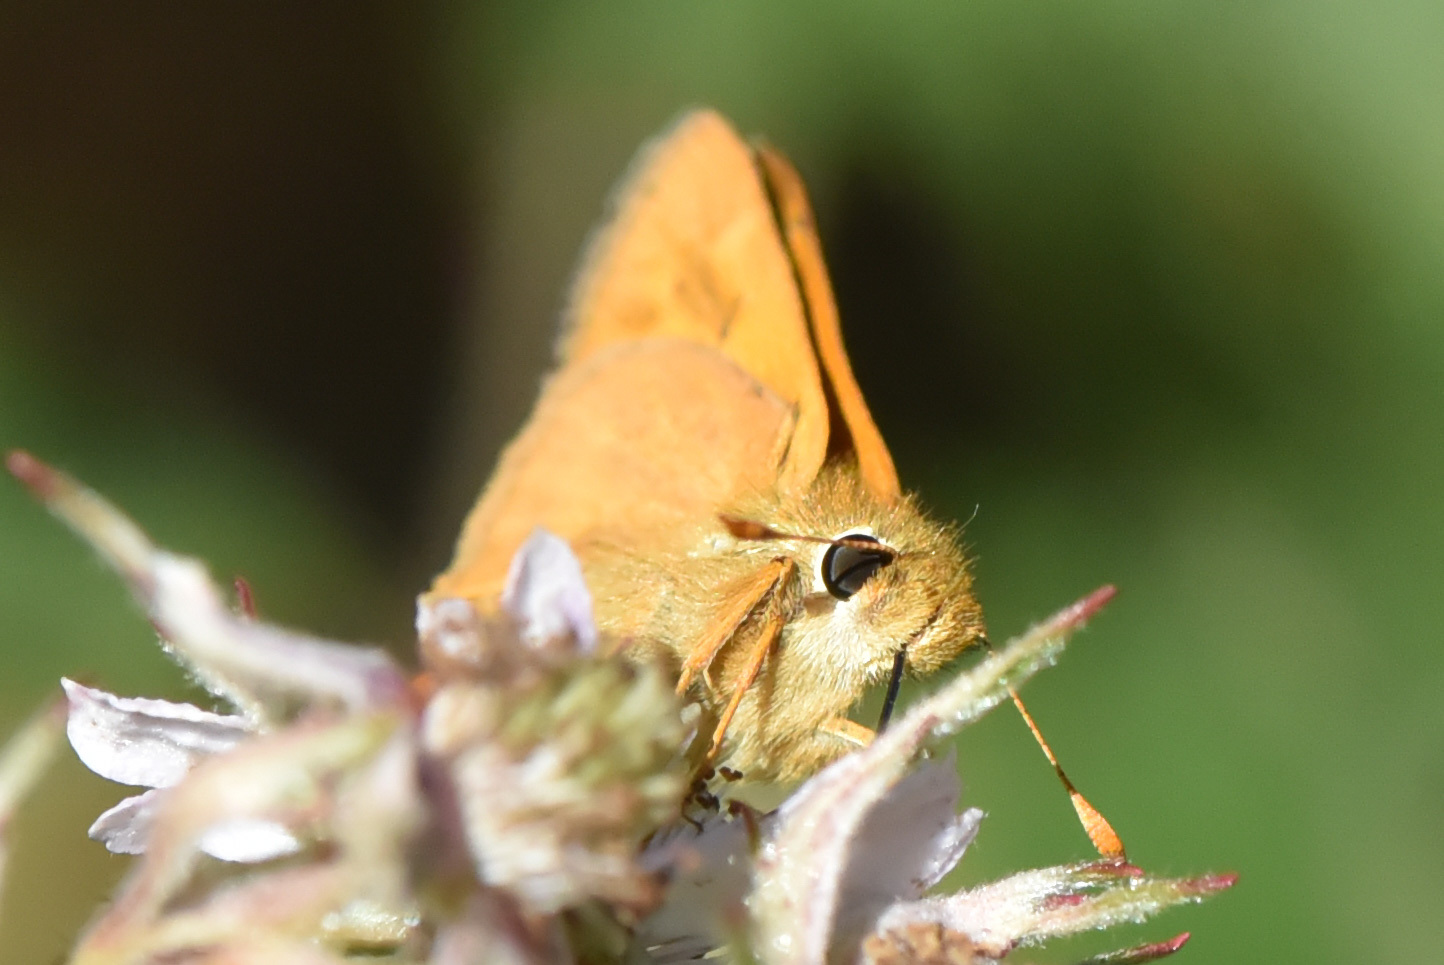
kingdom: Animalia
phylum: Arthropoda
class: Insecta
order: Lepidoptera
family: Hesperiidae
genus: Ochlodes
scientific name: Ochlodes sylvanoides
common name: Woodland skipper
